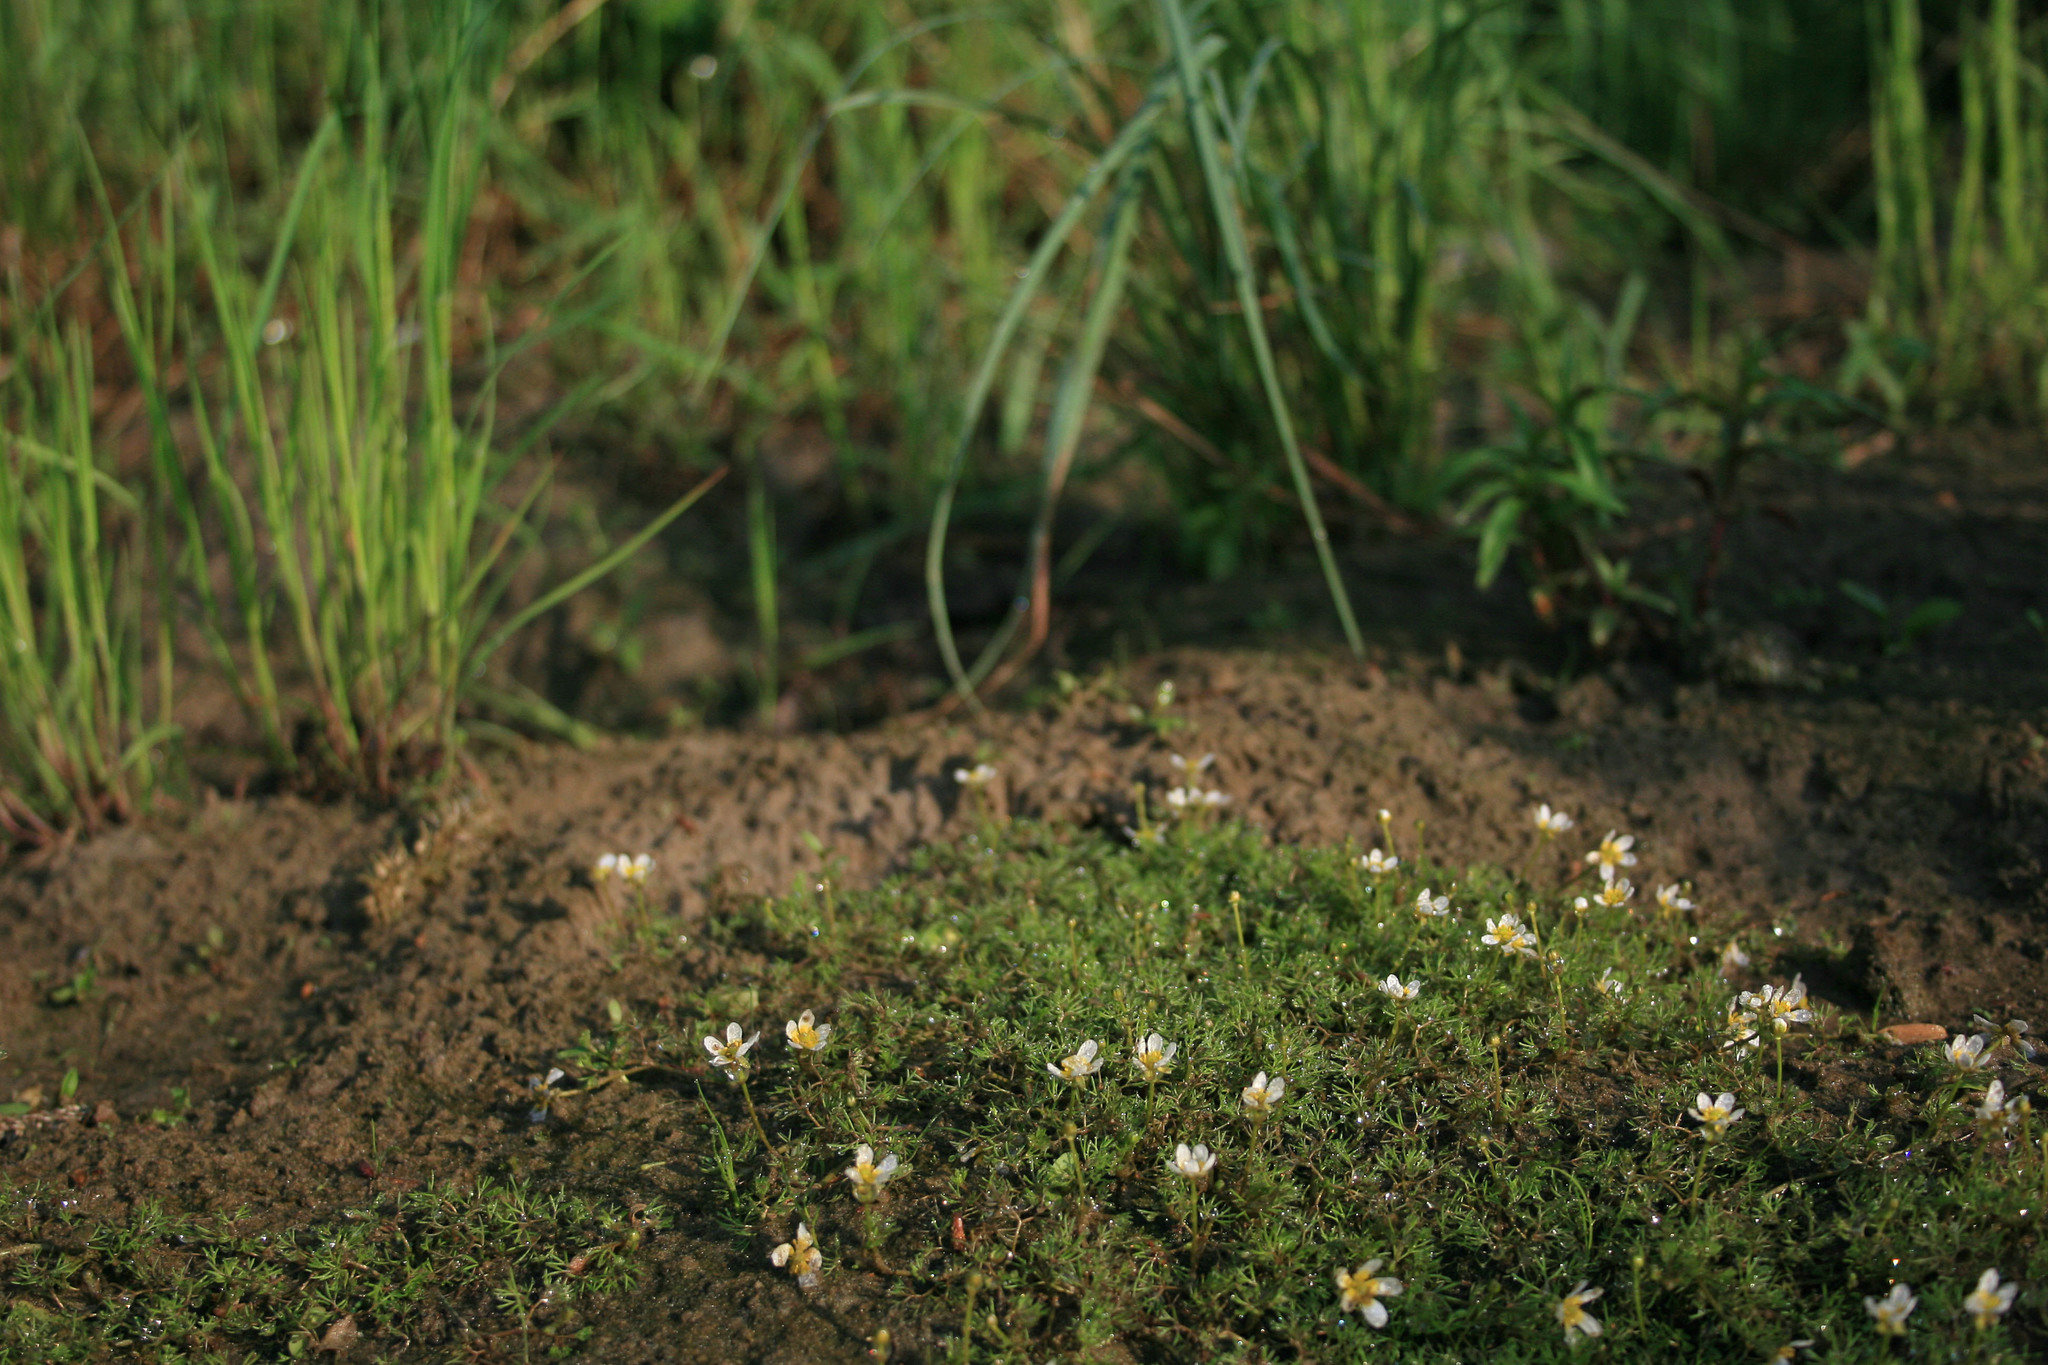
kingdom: Plantae
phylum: Tracheophyta
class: Magnoliopsida
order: Ranunculales
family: Ranunculaceae
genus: Ranunculus
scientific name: Ranunculus trichophyllus
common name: Thread-leaved water-crowfoot
